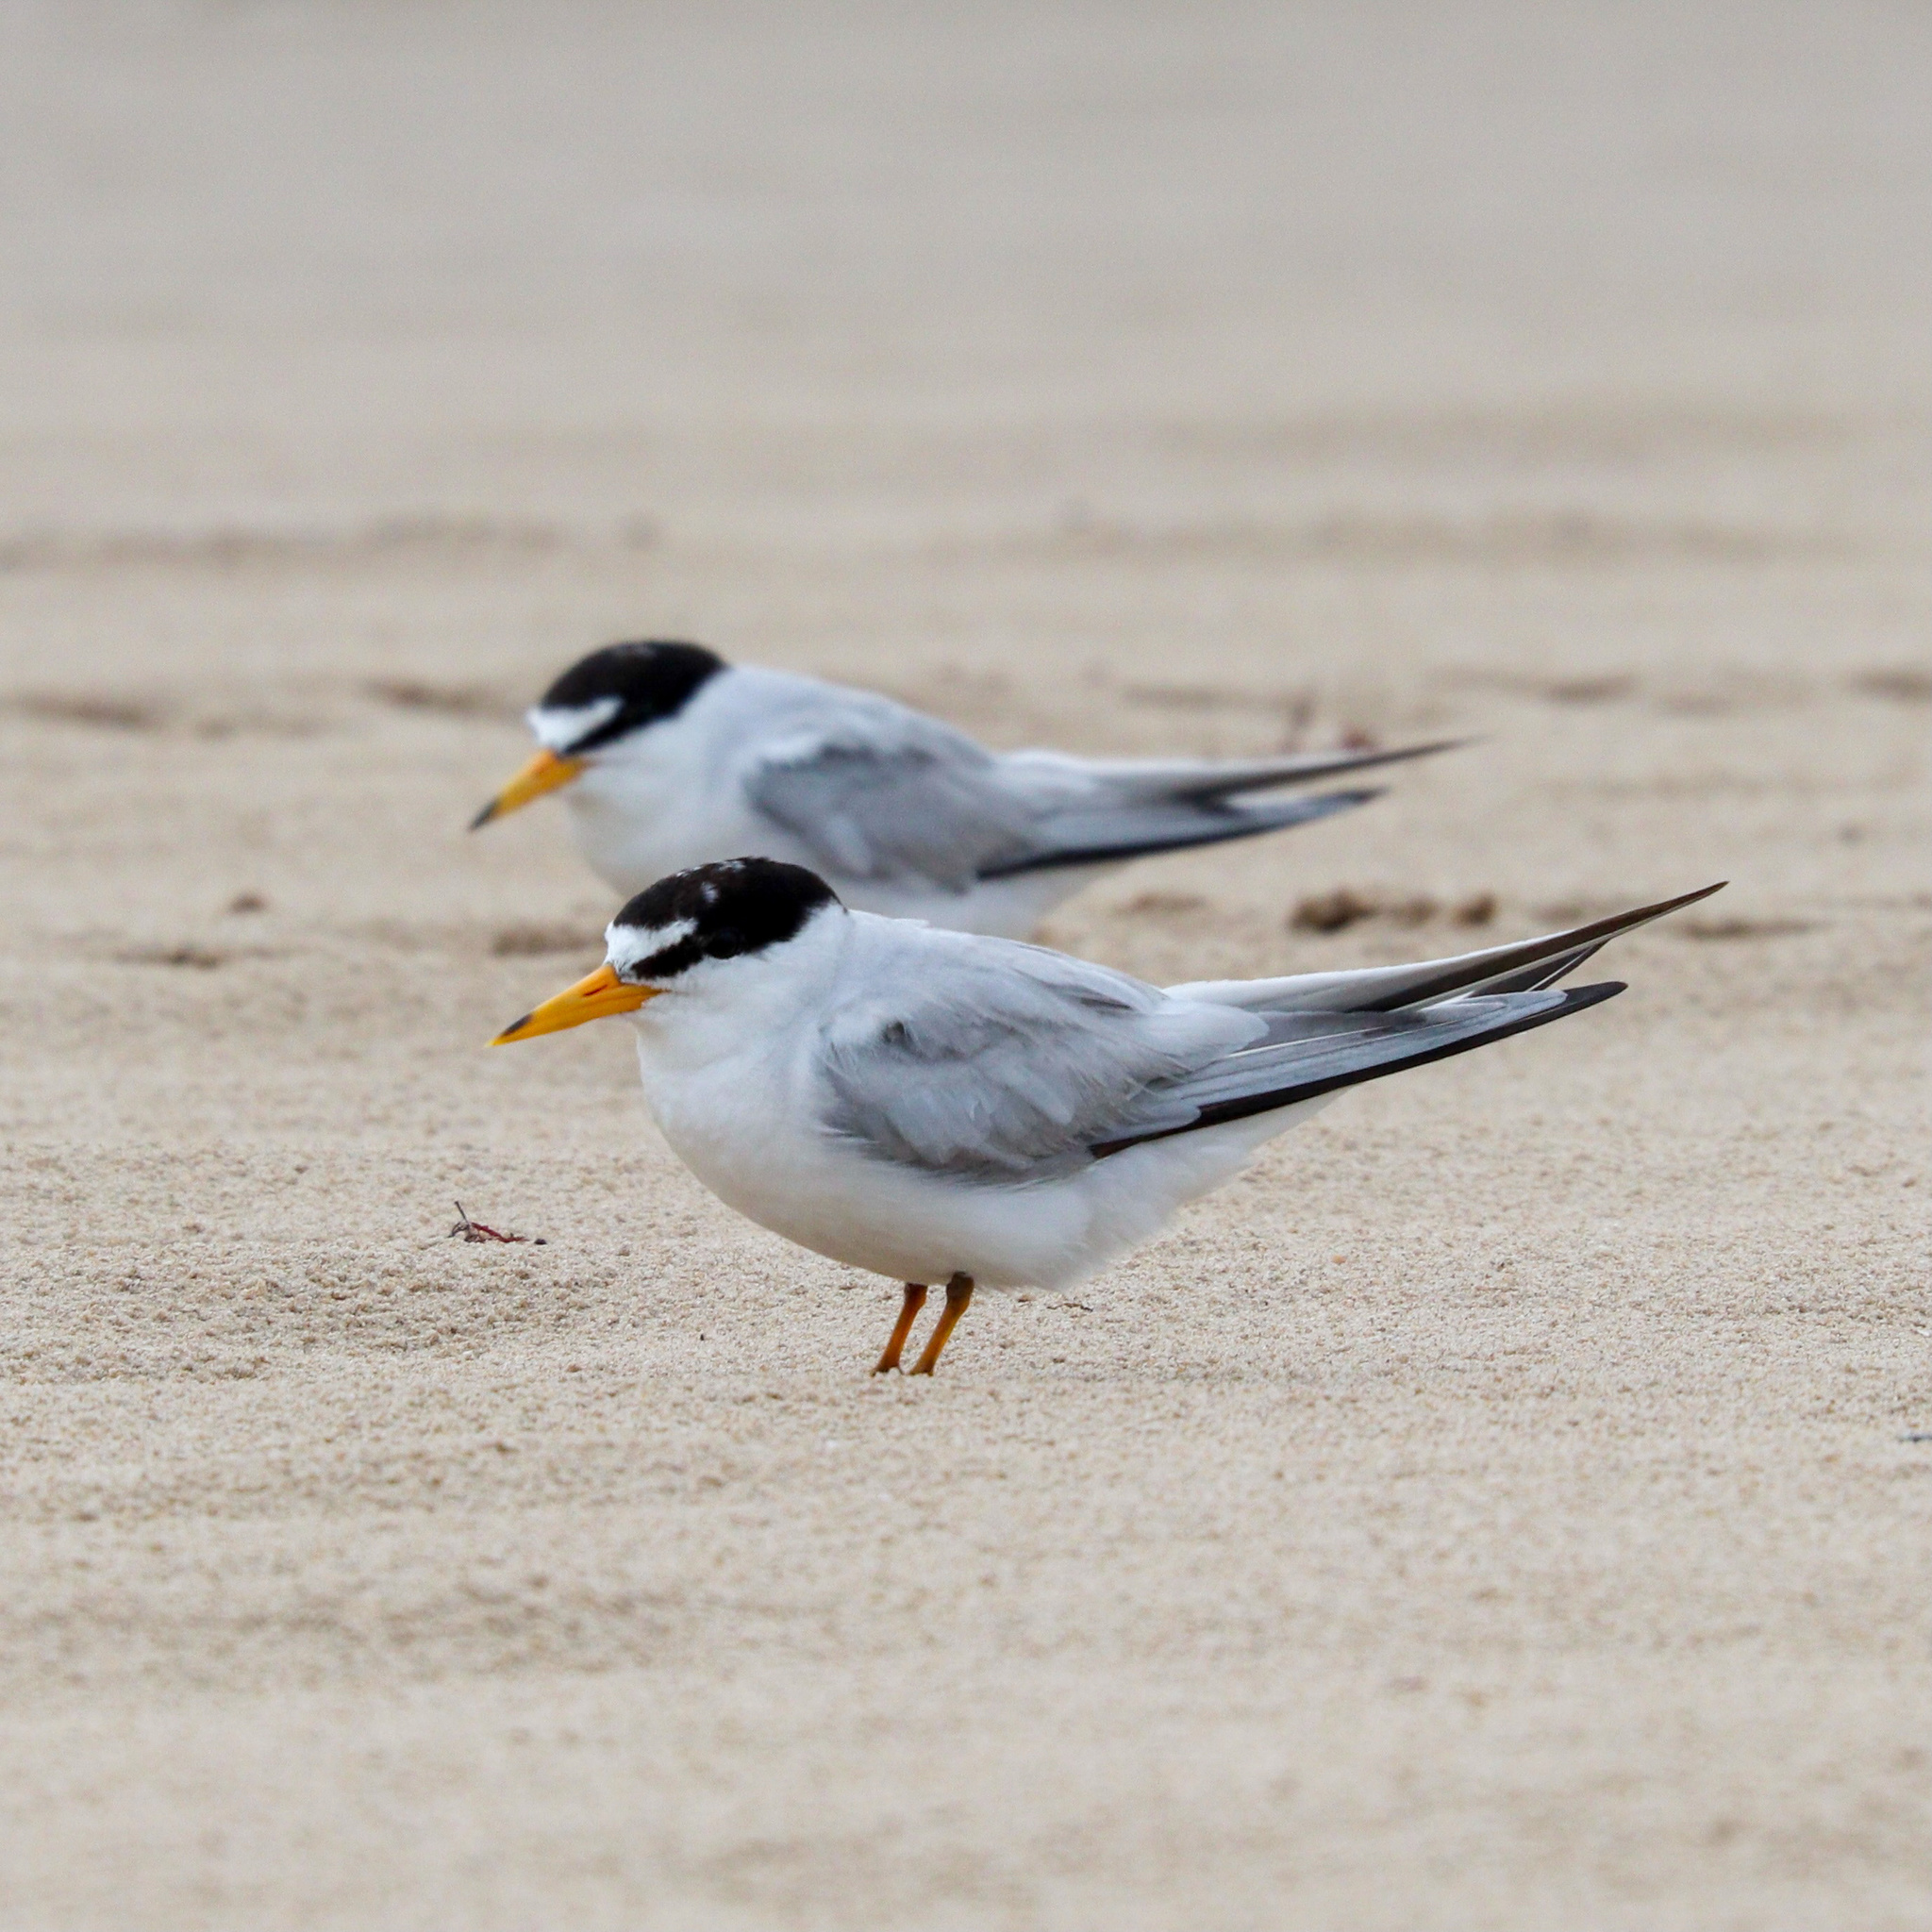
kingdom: Animalia
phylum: Chordata
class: Aves
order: Charadriiformes
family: Laridae
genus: Sternula
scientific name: Sternula antillarum
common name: Least tern
